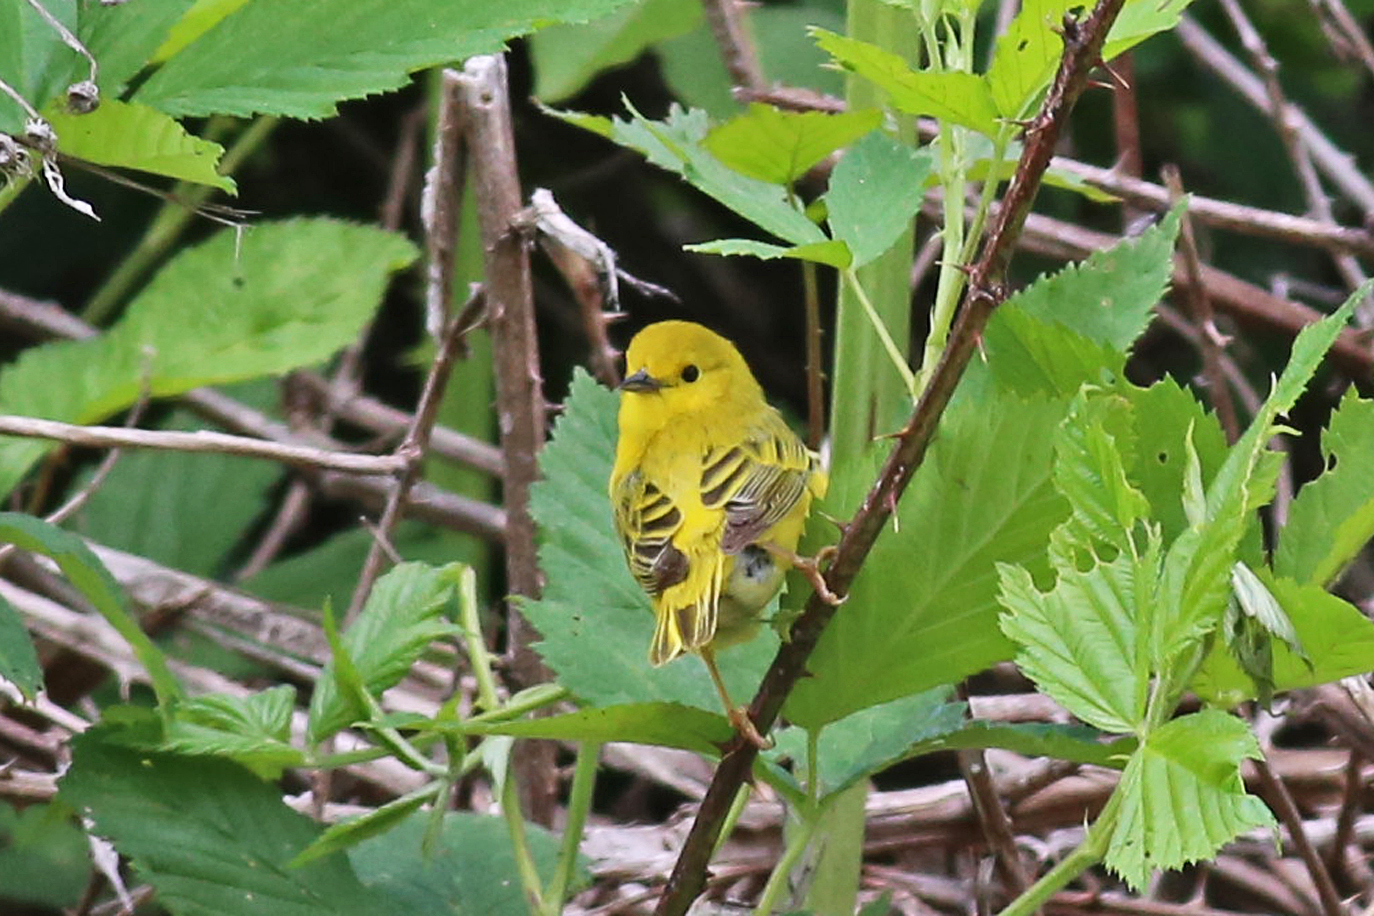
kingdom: Animalia
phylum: Chordata
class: Aves
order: Passeriformes
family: Parulidae
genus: Setophaga
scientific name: Setophaga petechia
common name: Yellow warbler
